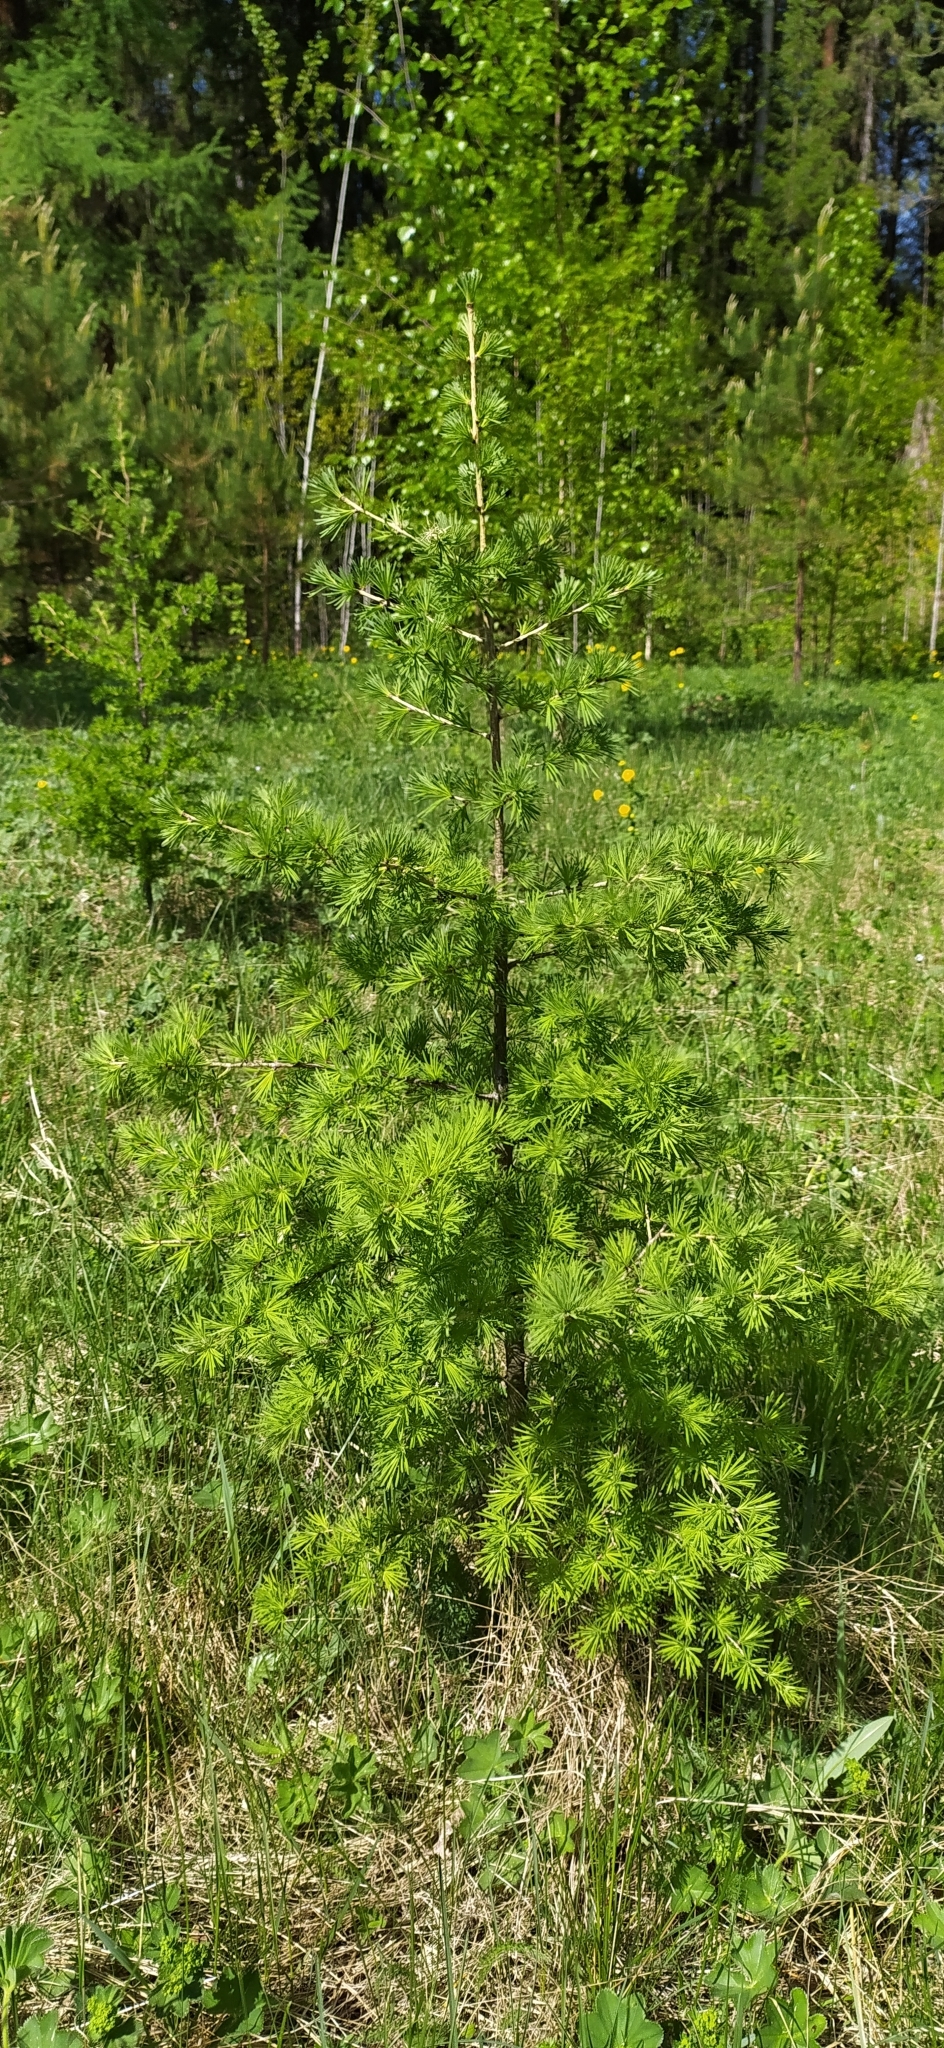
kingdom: Plantae
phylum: Tracheophyta
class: Pinopsida
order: Pinales
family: Pinaceae
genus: Larix
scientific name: Larix sibirica
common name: Siberian larch
